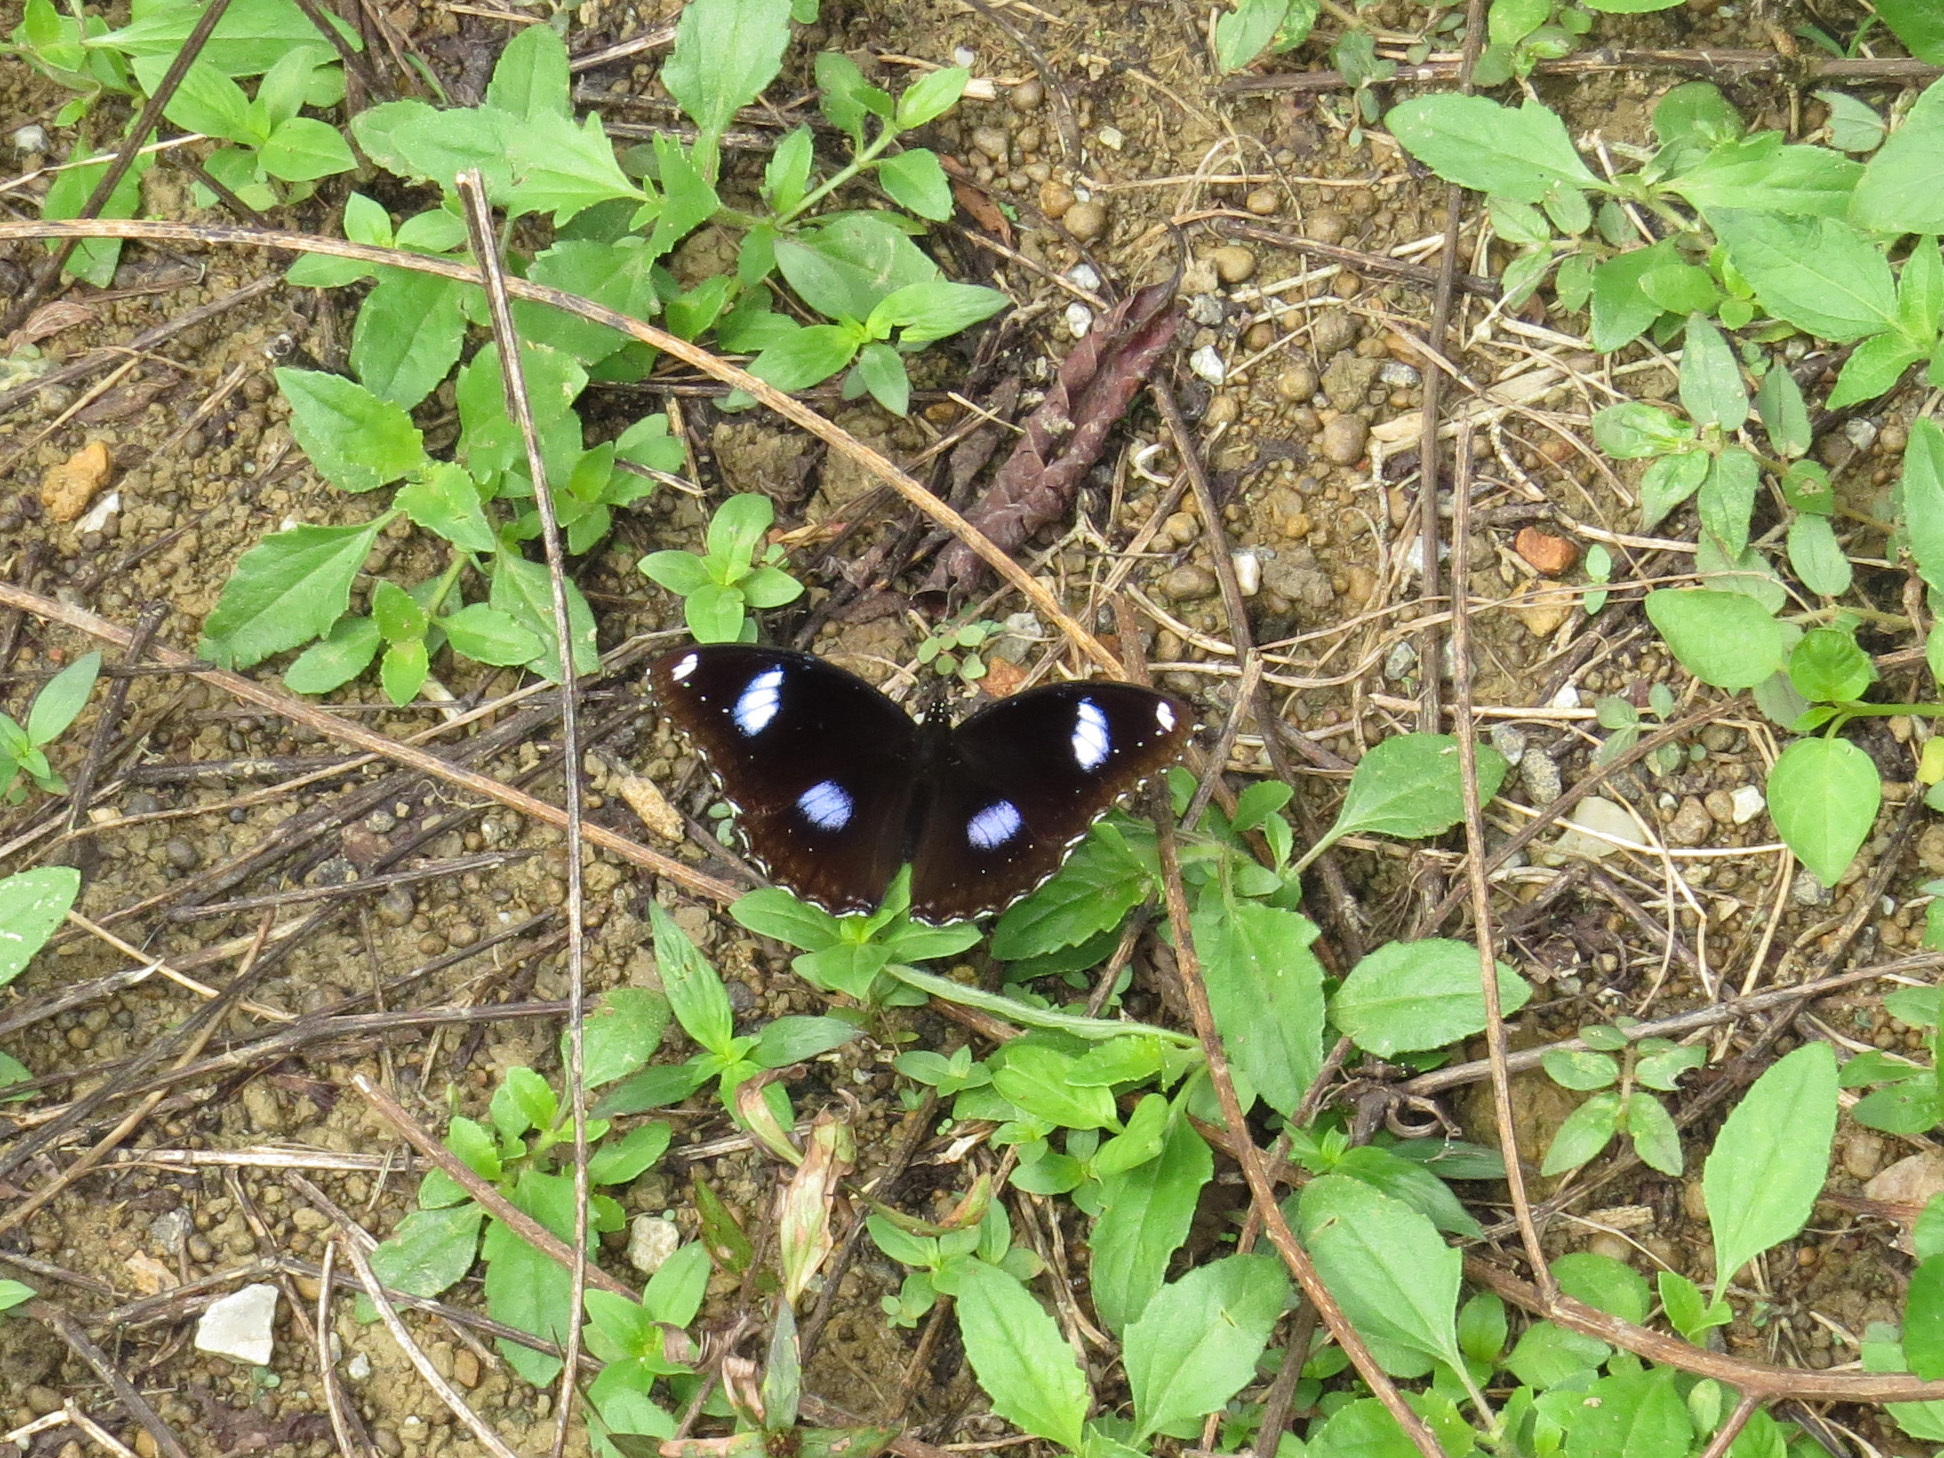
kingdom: Animalia
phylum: Arthropoda
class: Insecta
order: Lepidoptera
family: Nymphalidae
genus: Hypolimnas
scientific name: Hypolimnas bolina
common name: Great eggfly
